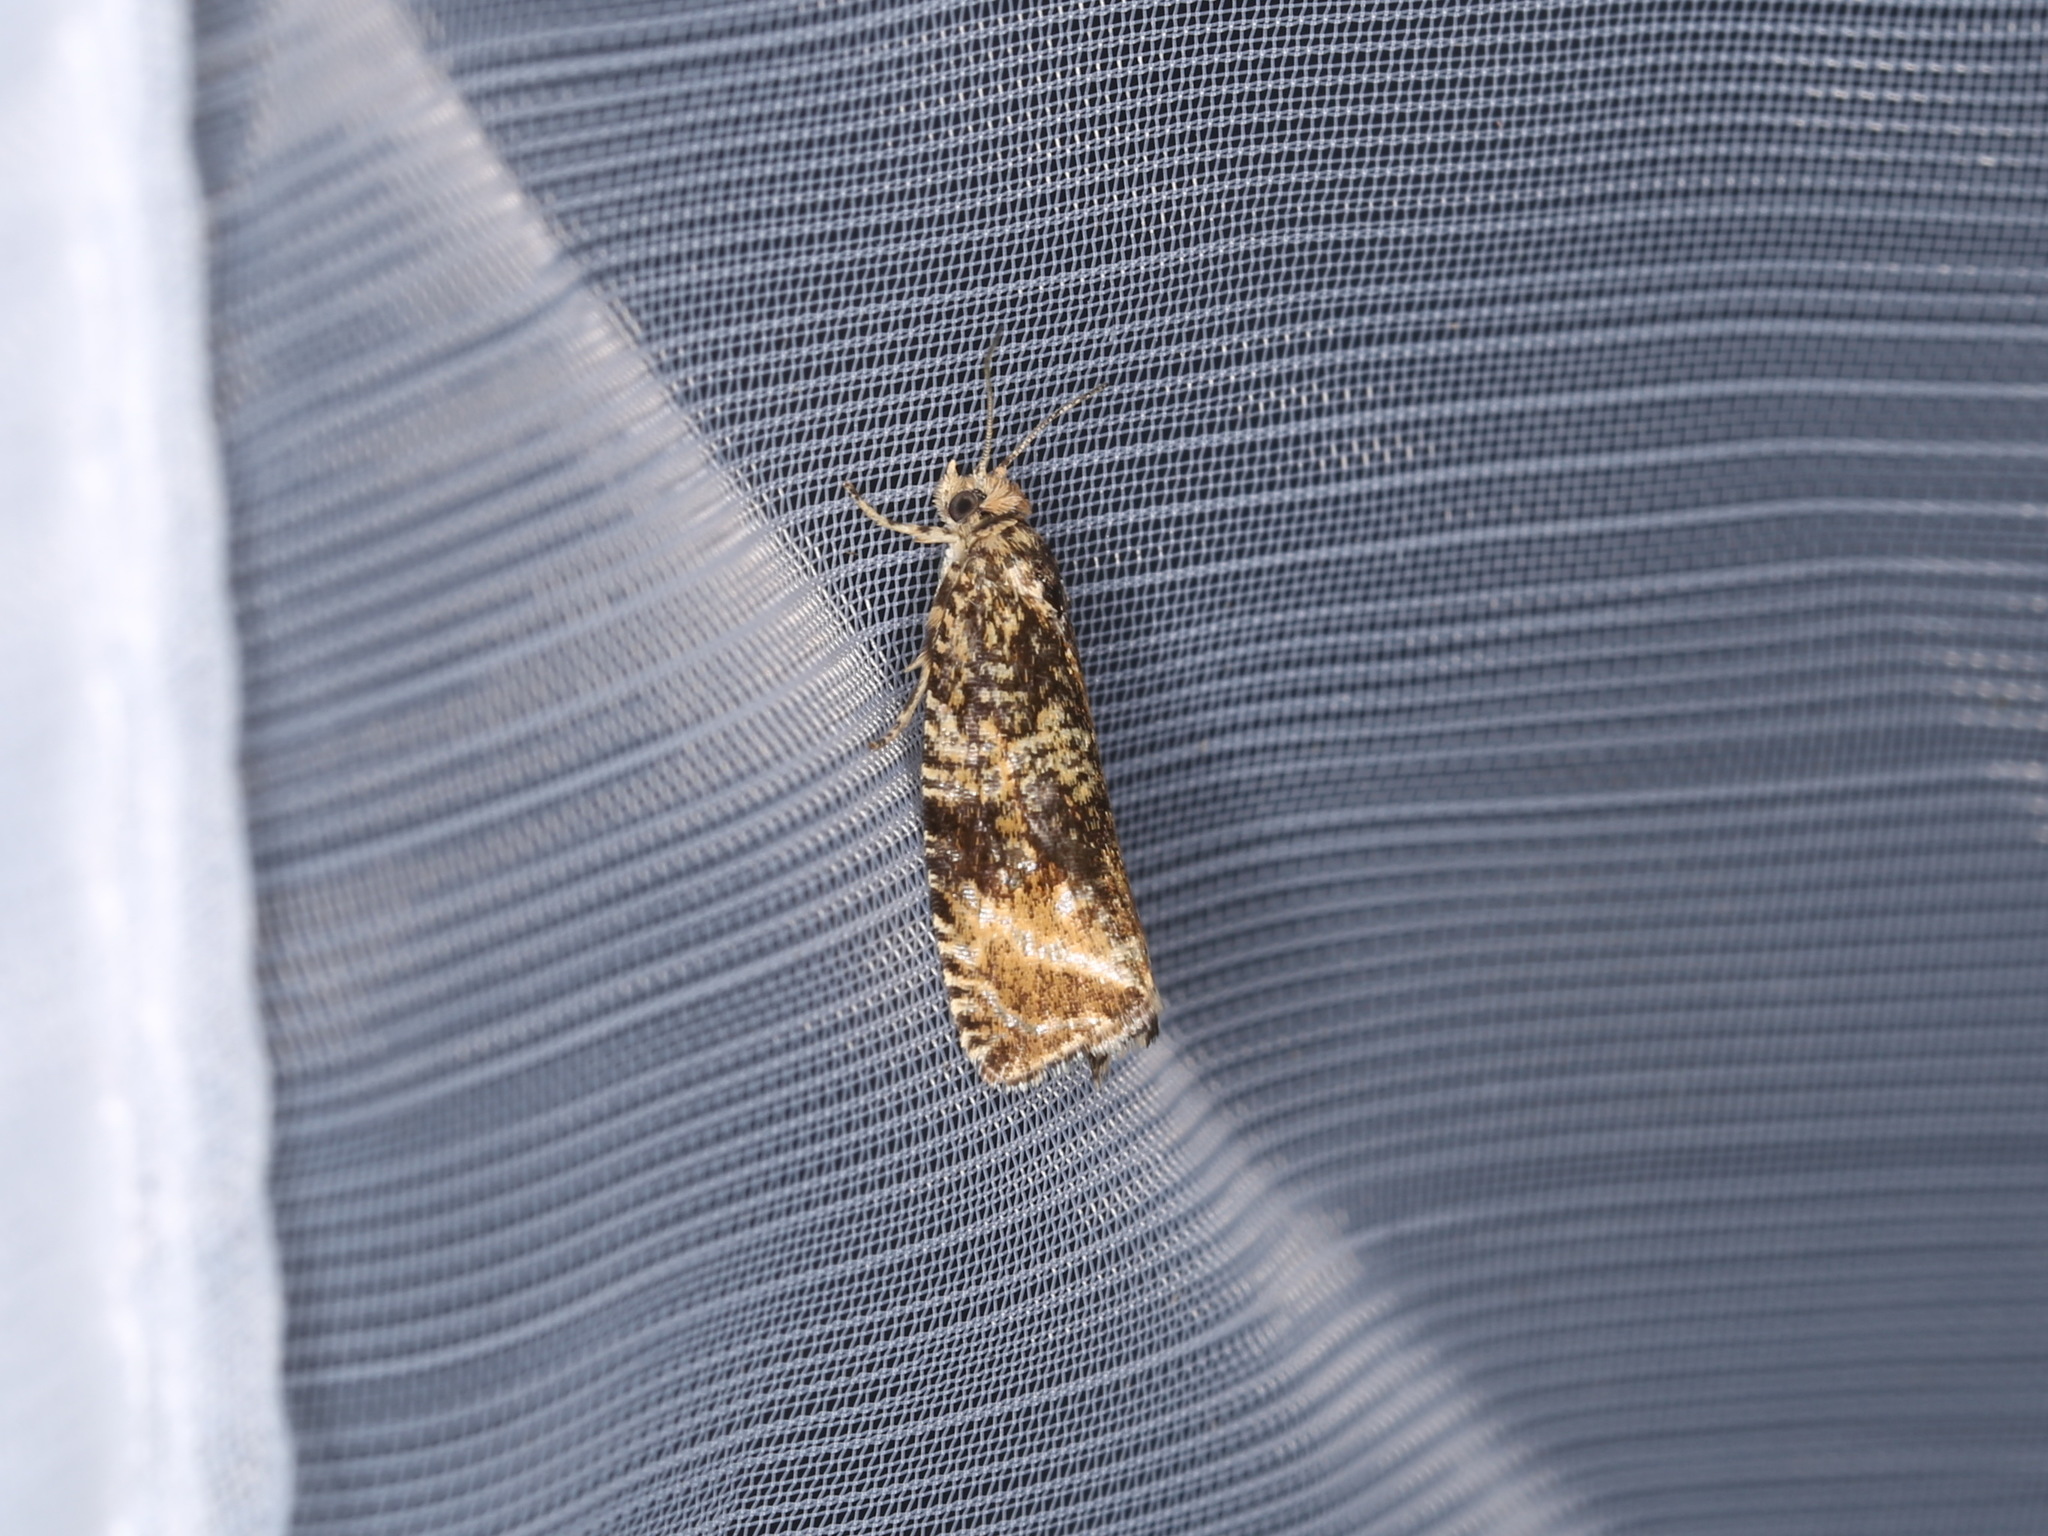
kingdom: Animalia
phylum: Arthropoda
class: Insecta
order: Lepidoptera
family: Tortricidae
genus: Syricoris
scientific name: Syricoris lacunana
